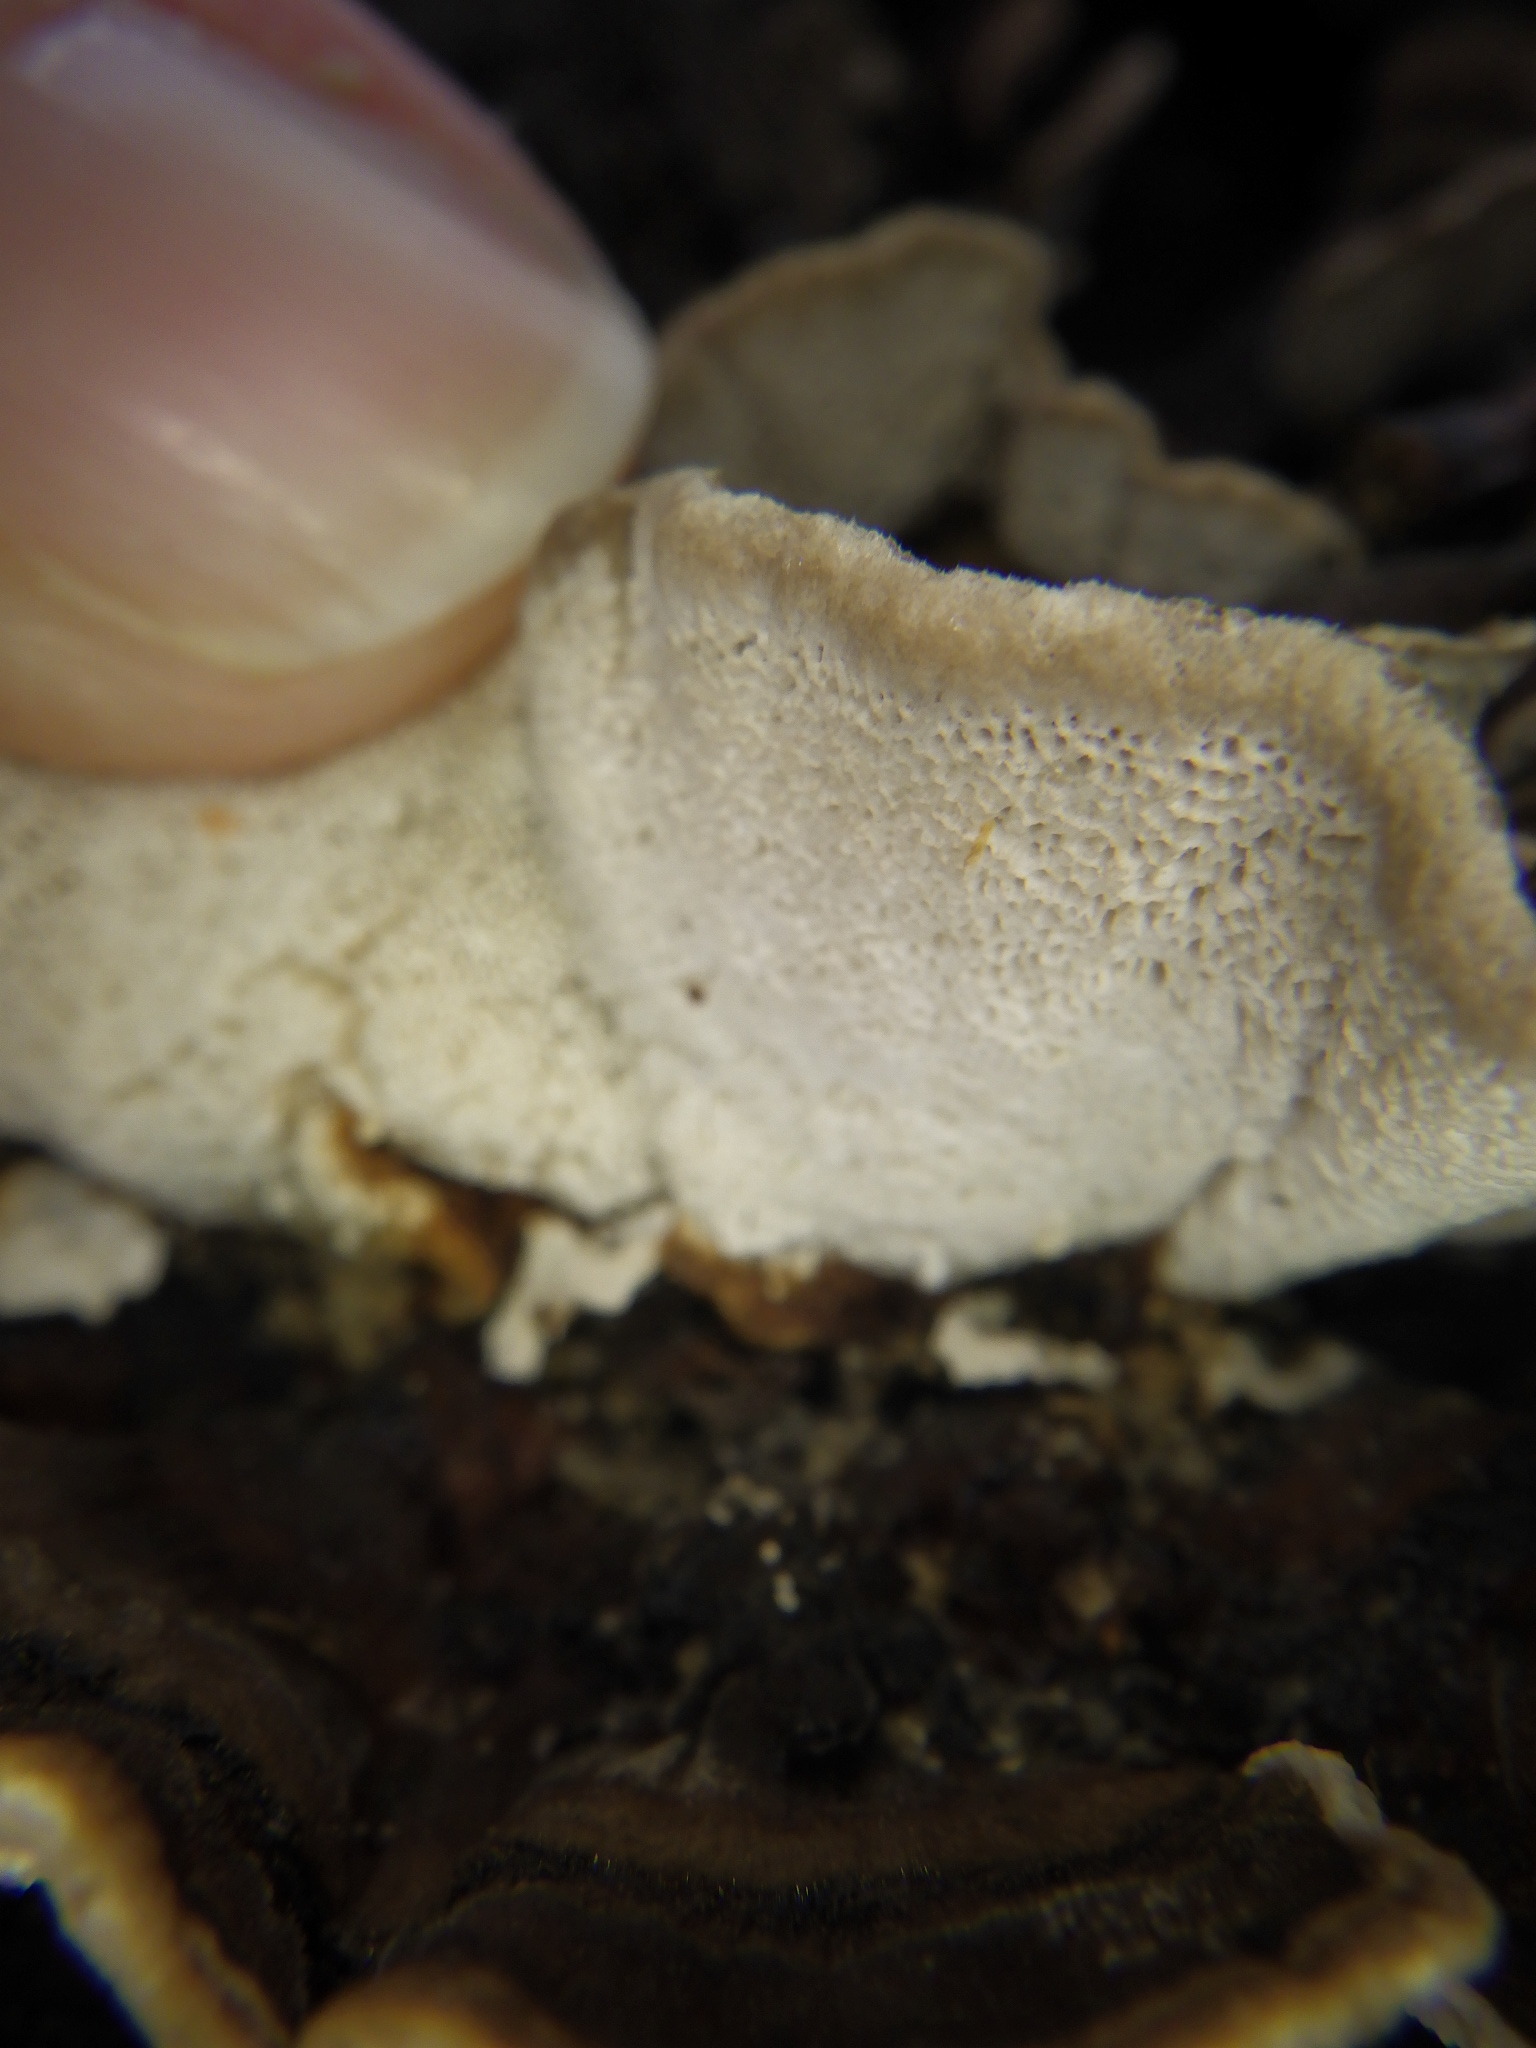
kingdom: Fungi
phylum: Basidiomycota
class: Agaricomycetes
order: Polyporales
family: Polyporaceae
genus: Trametes
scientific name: Trametes versicolor
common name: Turkeytail
